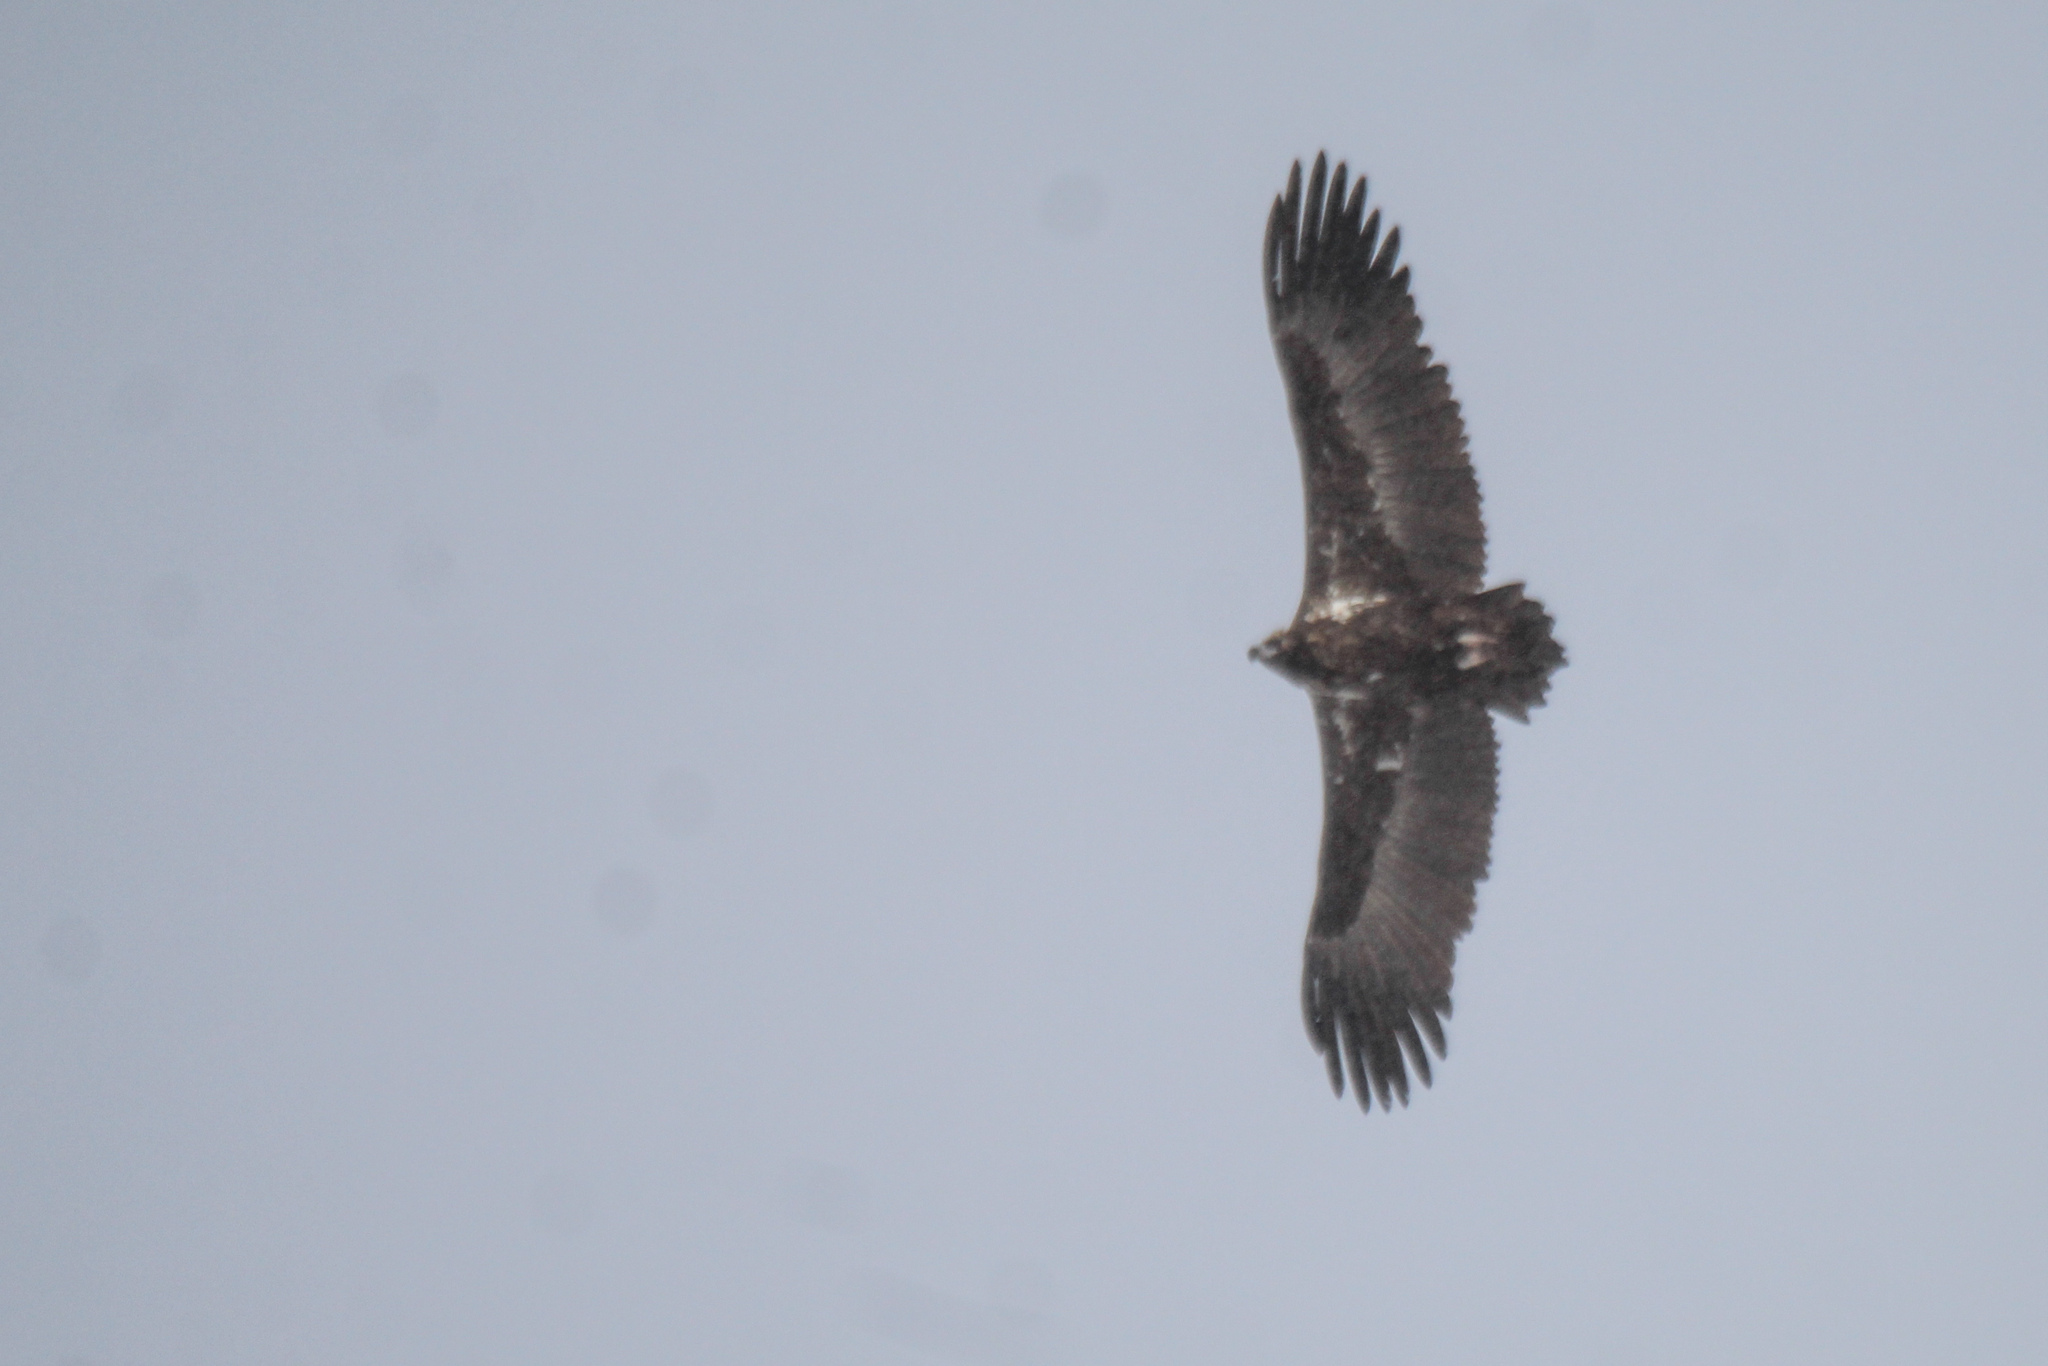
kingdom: Animalia
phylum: Chordata
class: Aves
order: Accipitriformes
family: Accipitridae
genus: Aegypius
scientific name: Aegypius monachus
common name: Cinereous vulture
